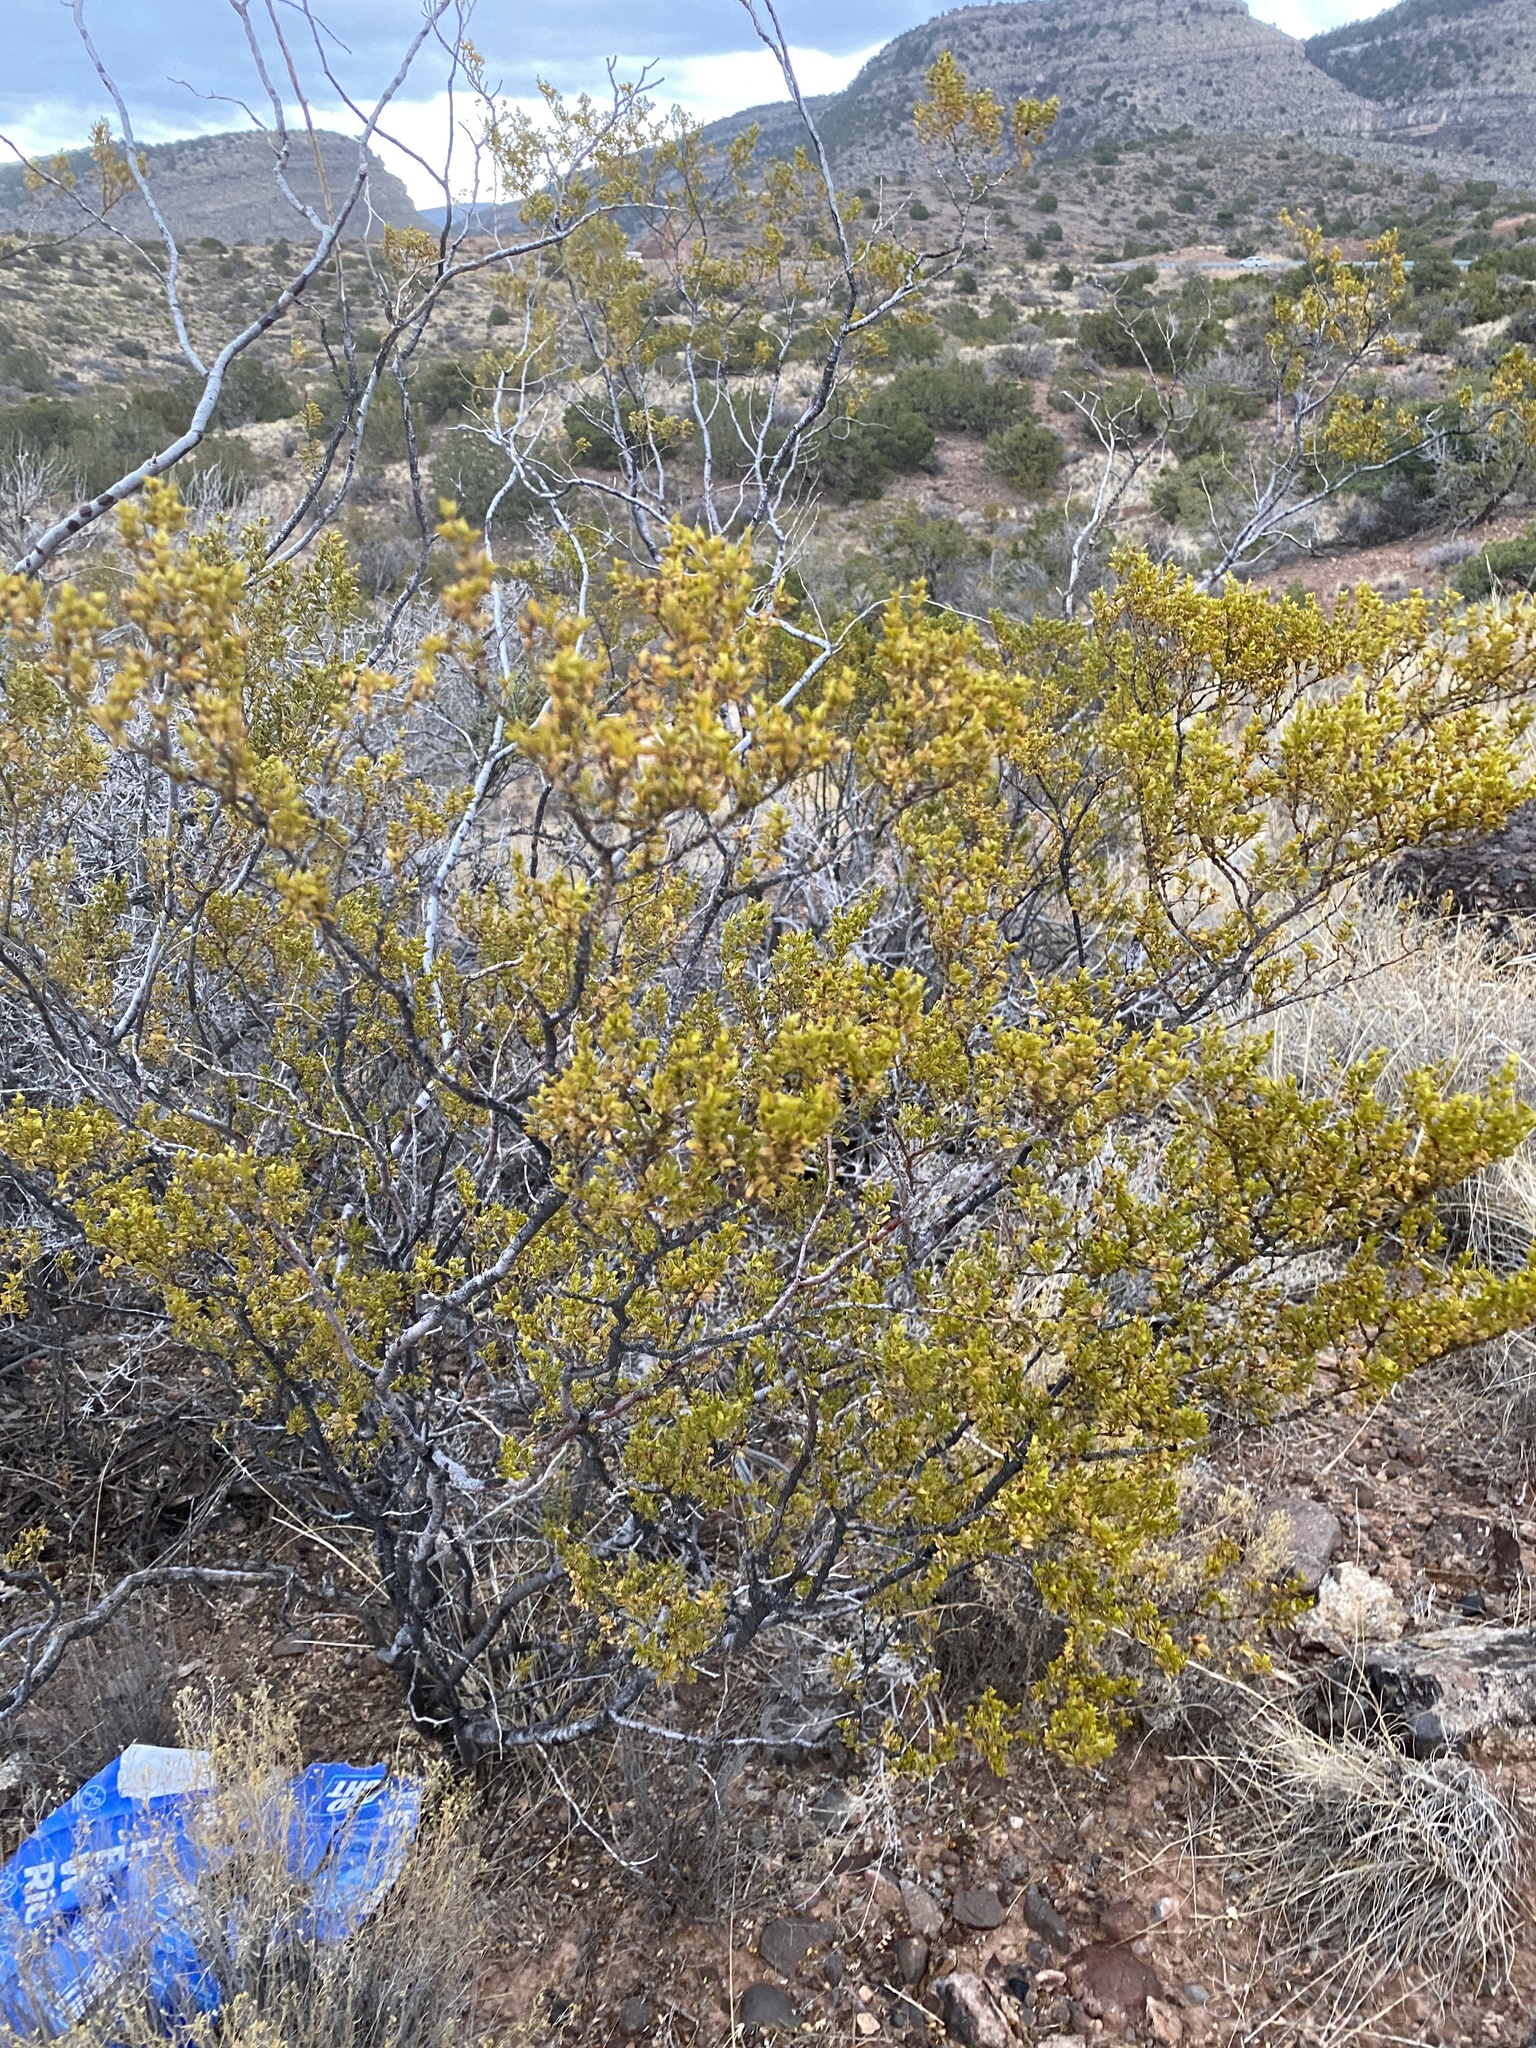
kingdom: Plantae
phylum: Tracheophyta
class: Magnoliopsida
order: Zygophyllales
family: Zygophyllaceae
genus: Larrea
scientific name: Larrea tridentata
